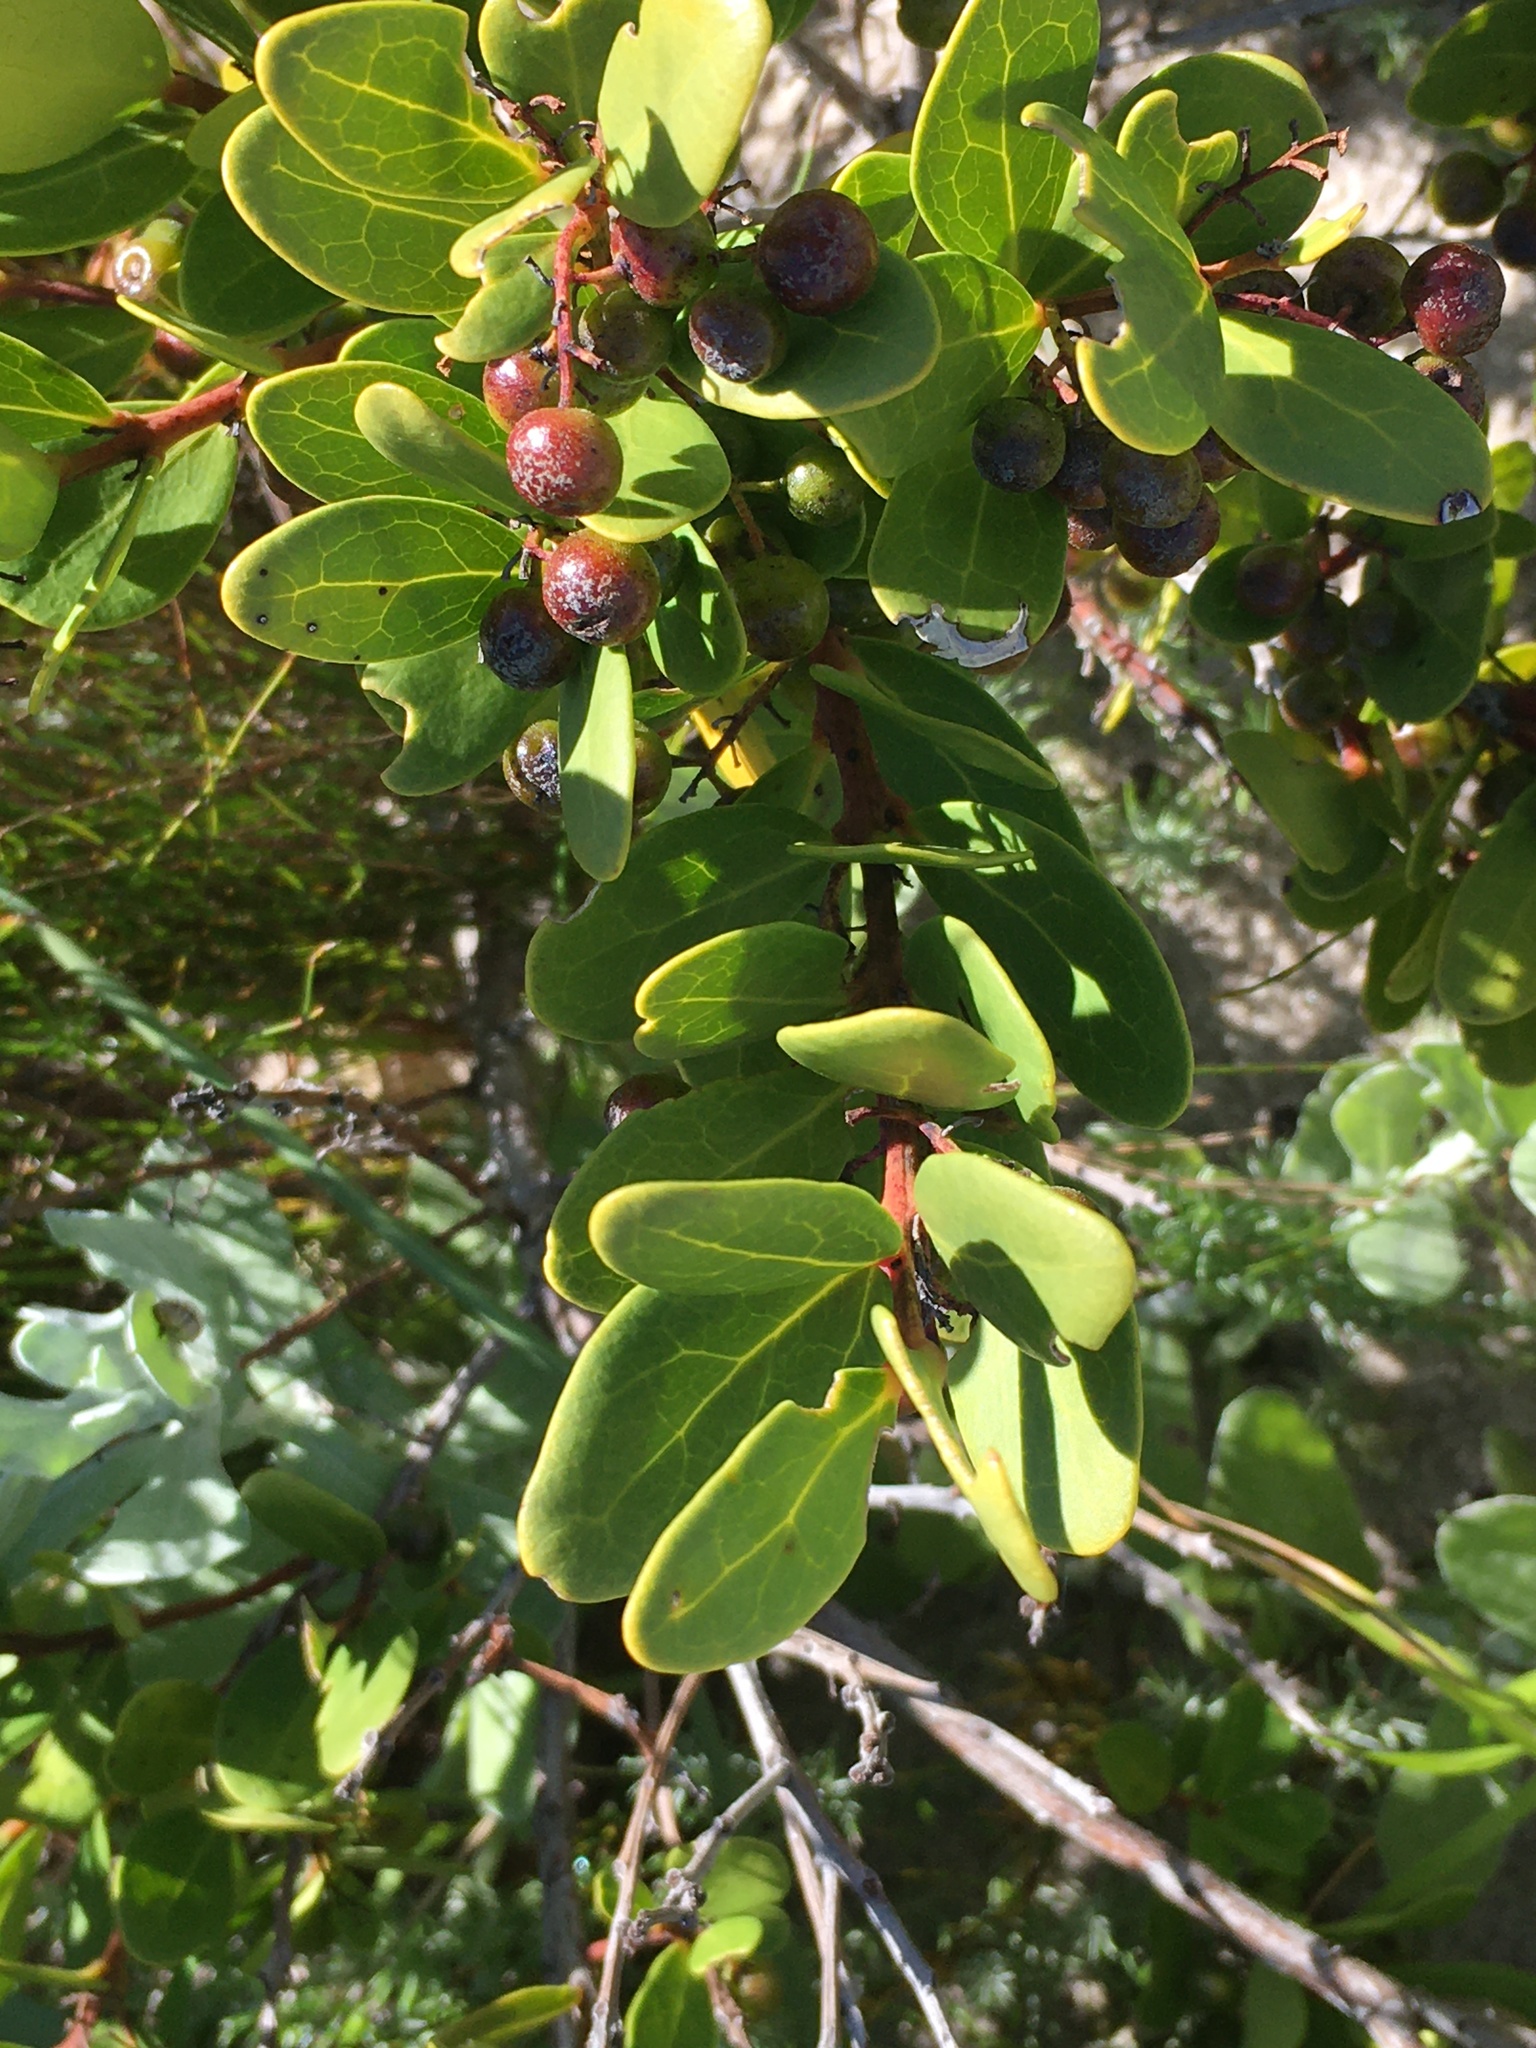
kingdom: Plantae
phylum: Tracheophyta
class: Magnoliopsida
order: Ericales
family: Ebenaceae
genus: Euclea
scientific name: Euclea racemosa
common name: Dune guarri
